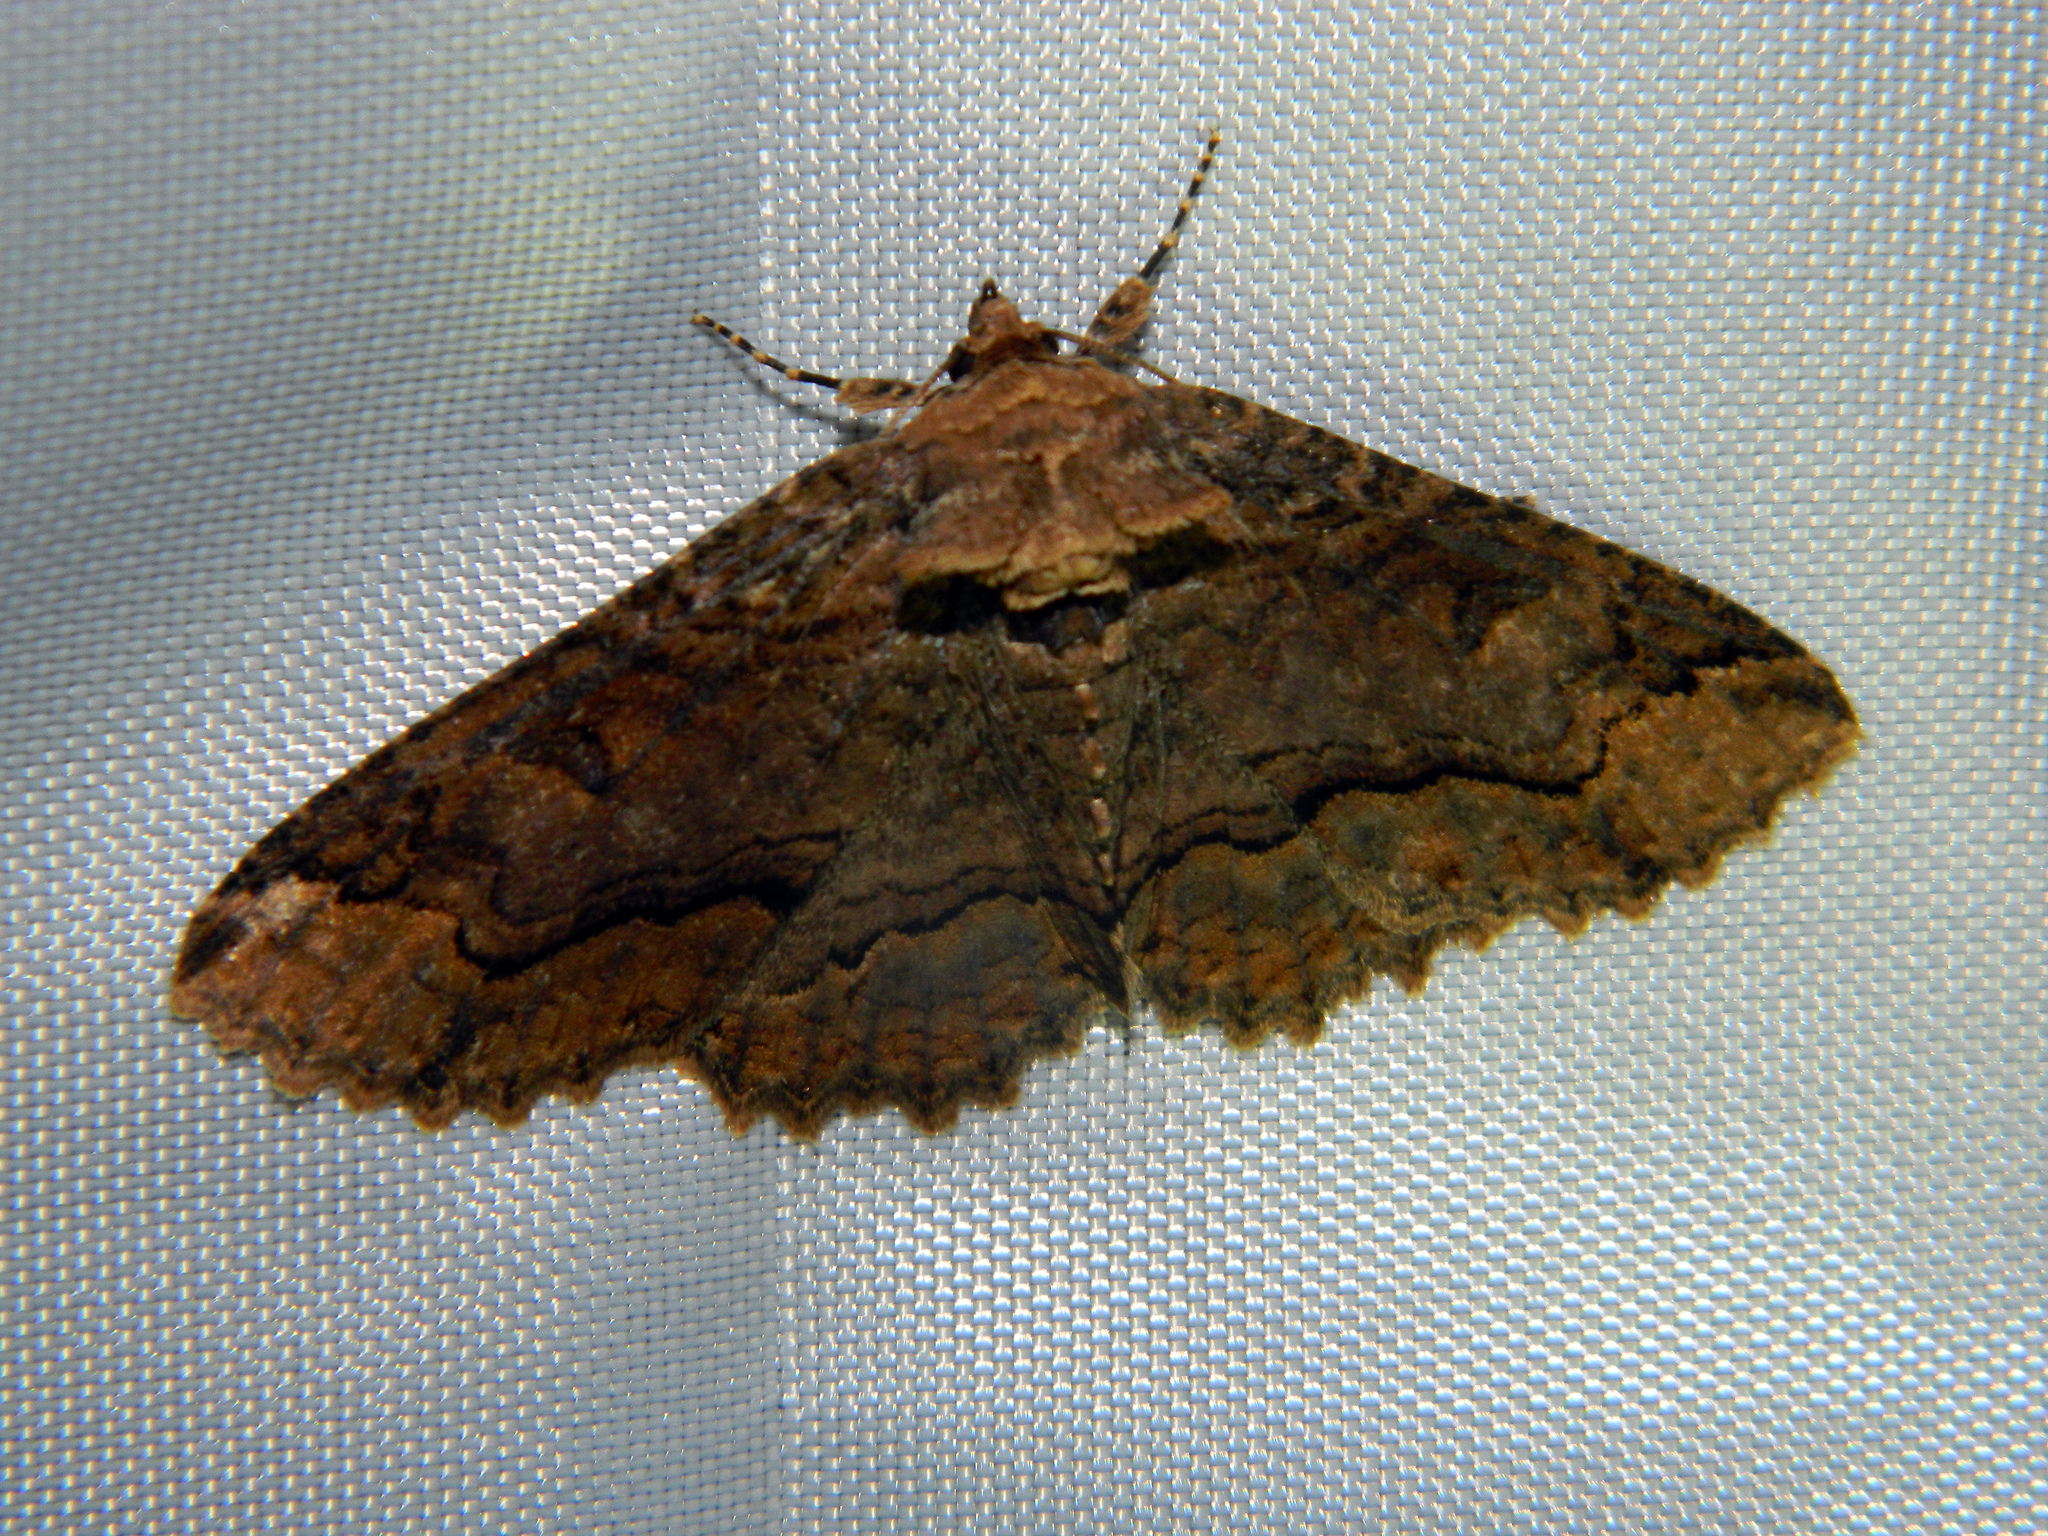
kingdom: Animalia
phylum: Arthropoda
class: Insecta
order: Lepidoptera
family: Erebidae
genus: Zale
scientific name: Zale minerea
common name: Colorful zale moth
